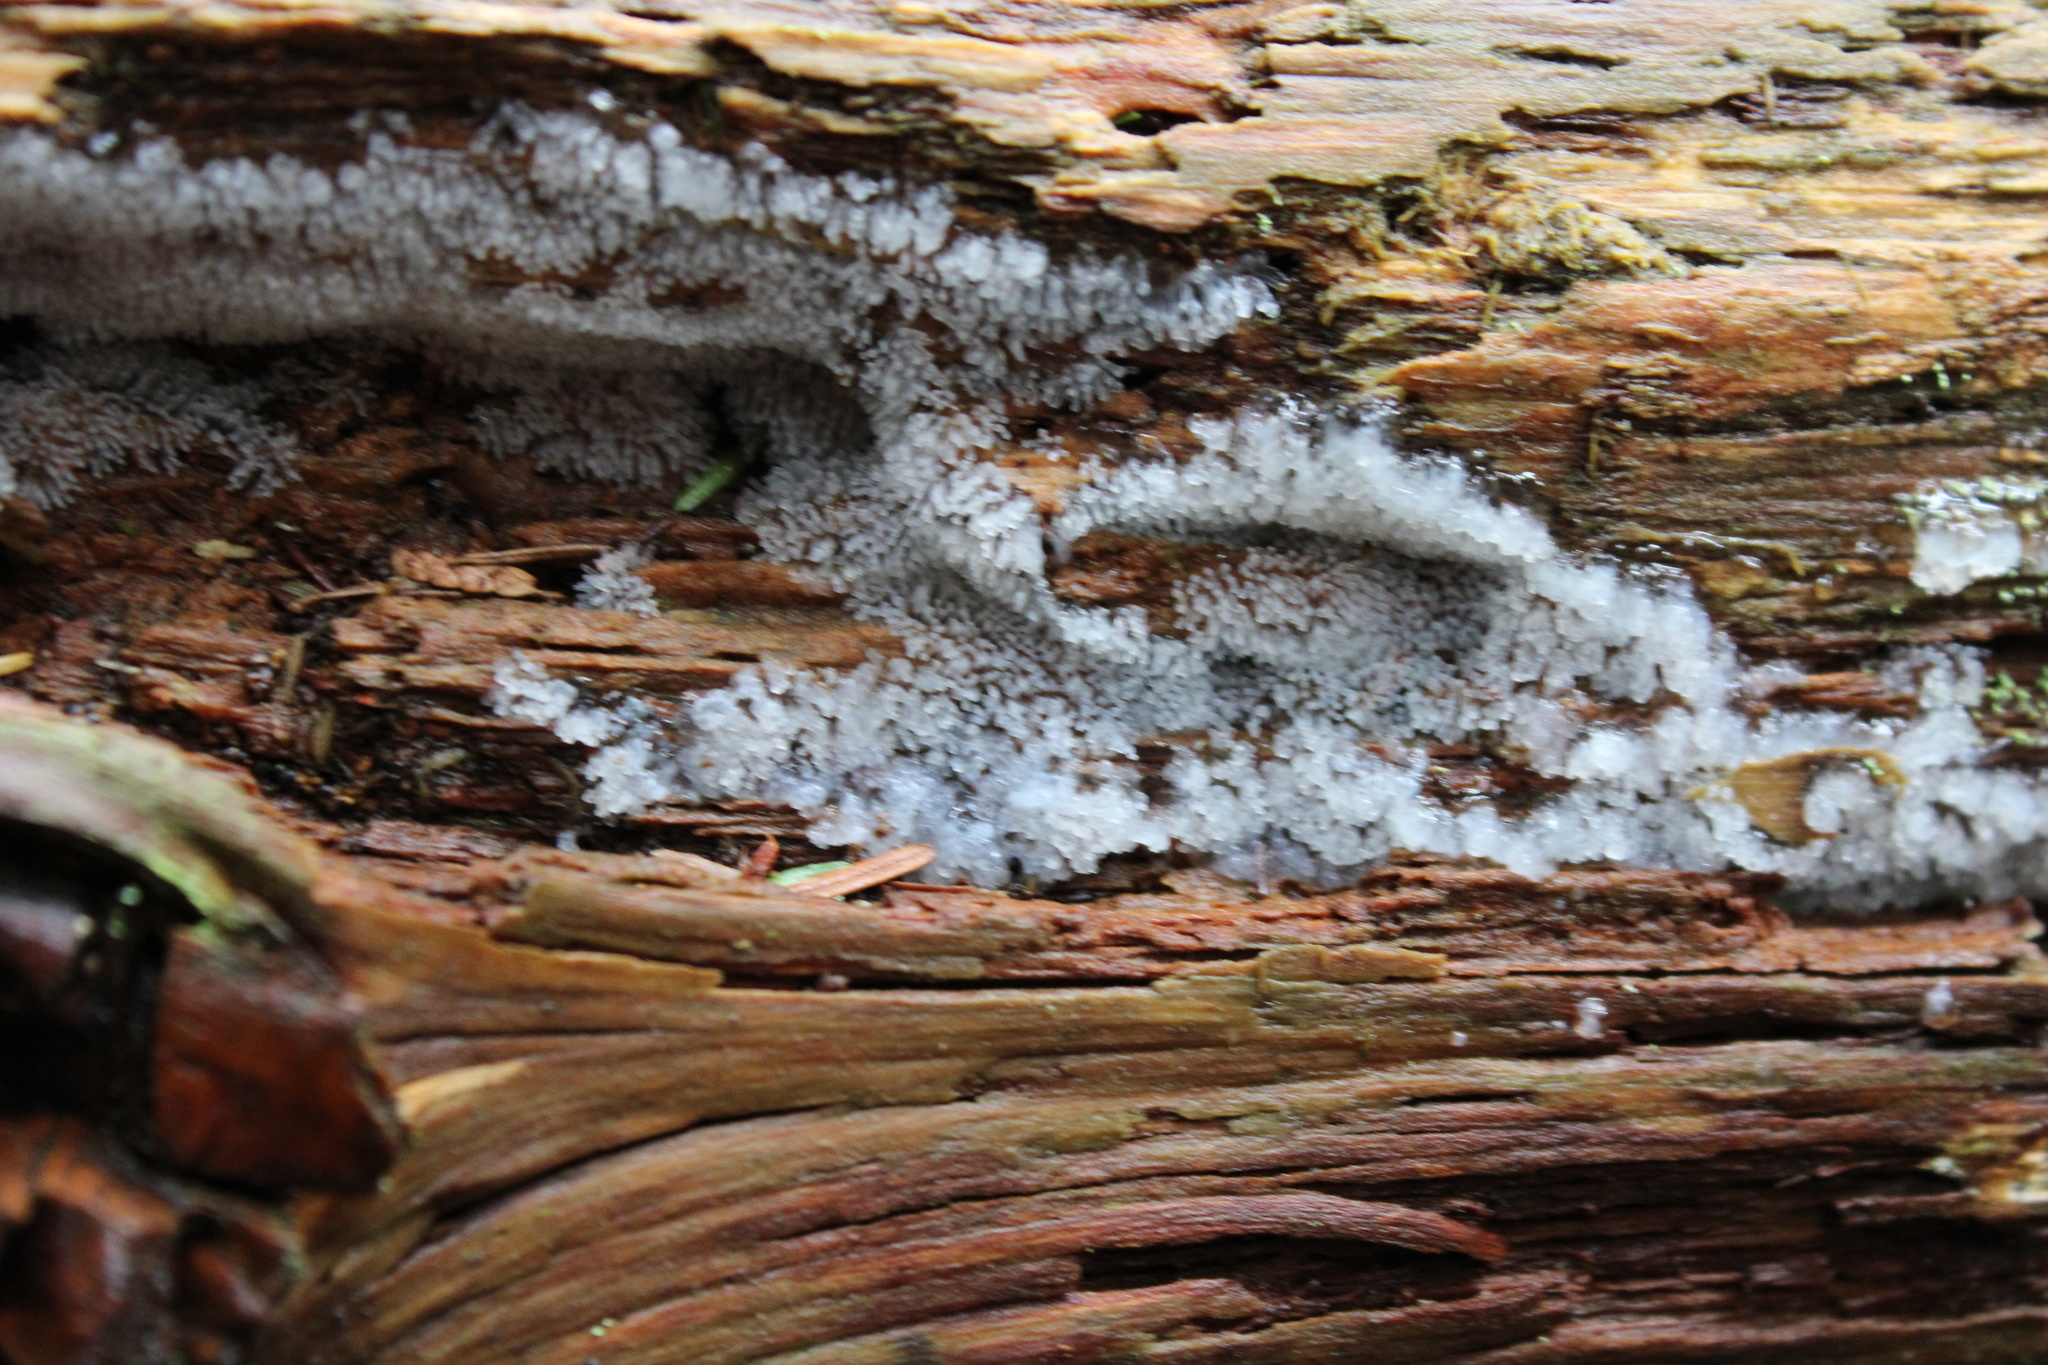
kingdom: Protozoa
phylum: Mycetozoa
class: Protosteliomycetes
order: Ceratiomyxales
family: Ceratiomyxaceae
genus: Ceratiomyxa
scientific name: Ceratiomyxa fruticulosa
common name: Honeycomb coral slime mold
